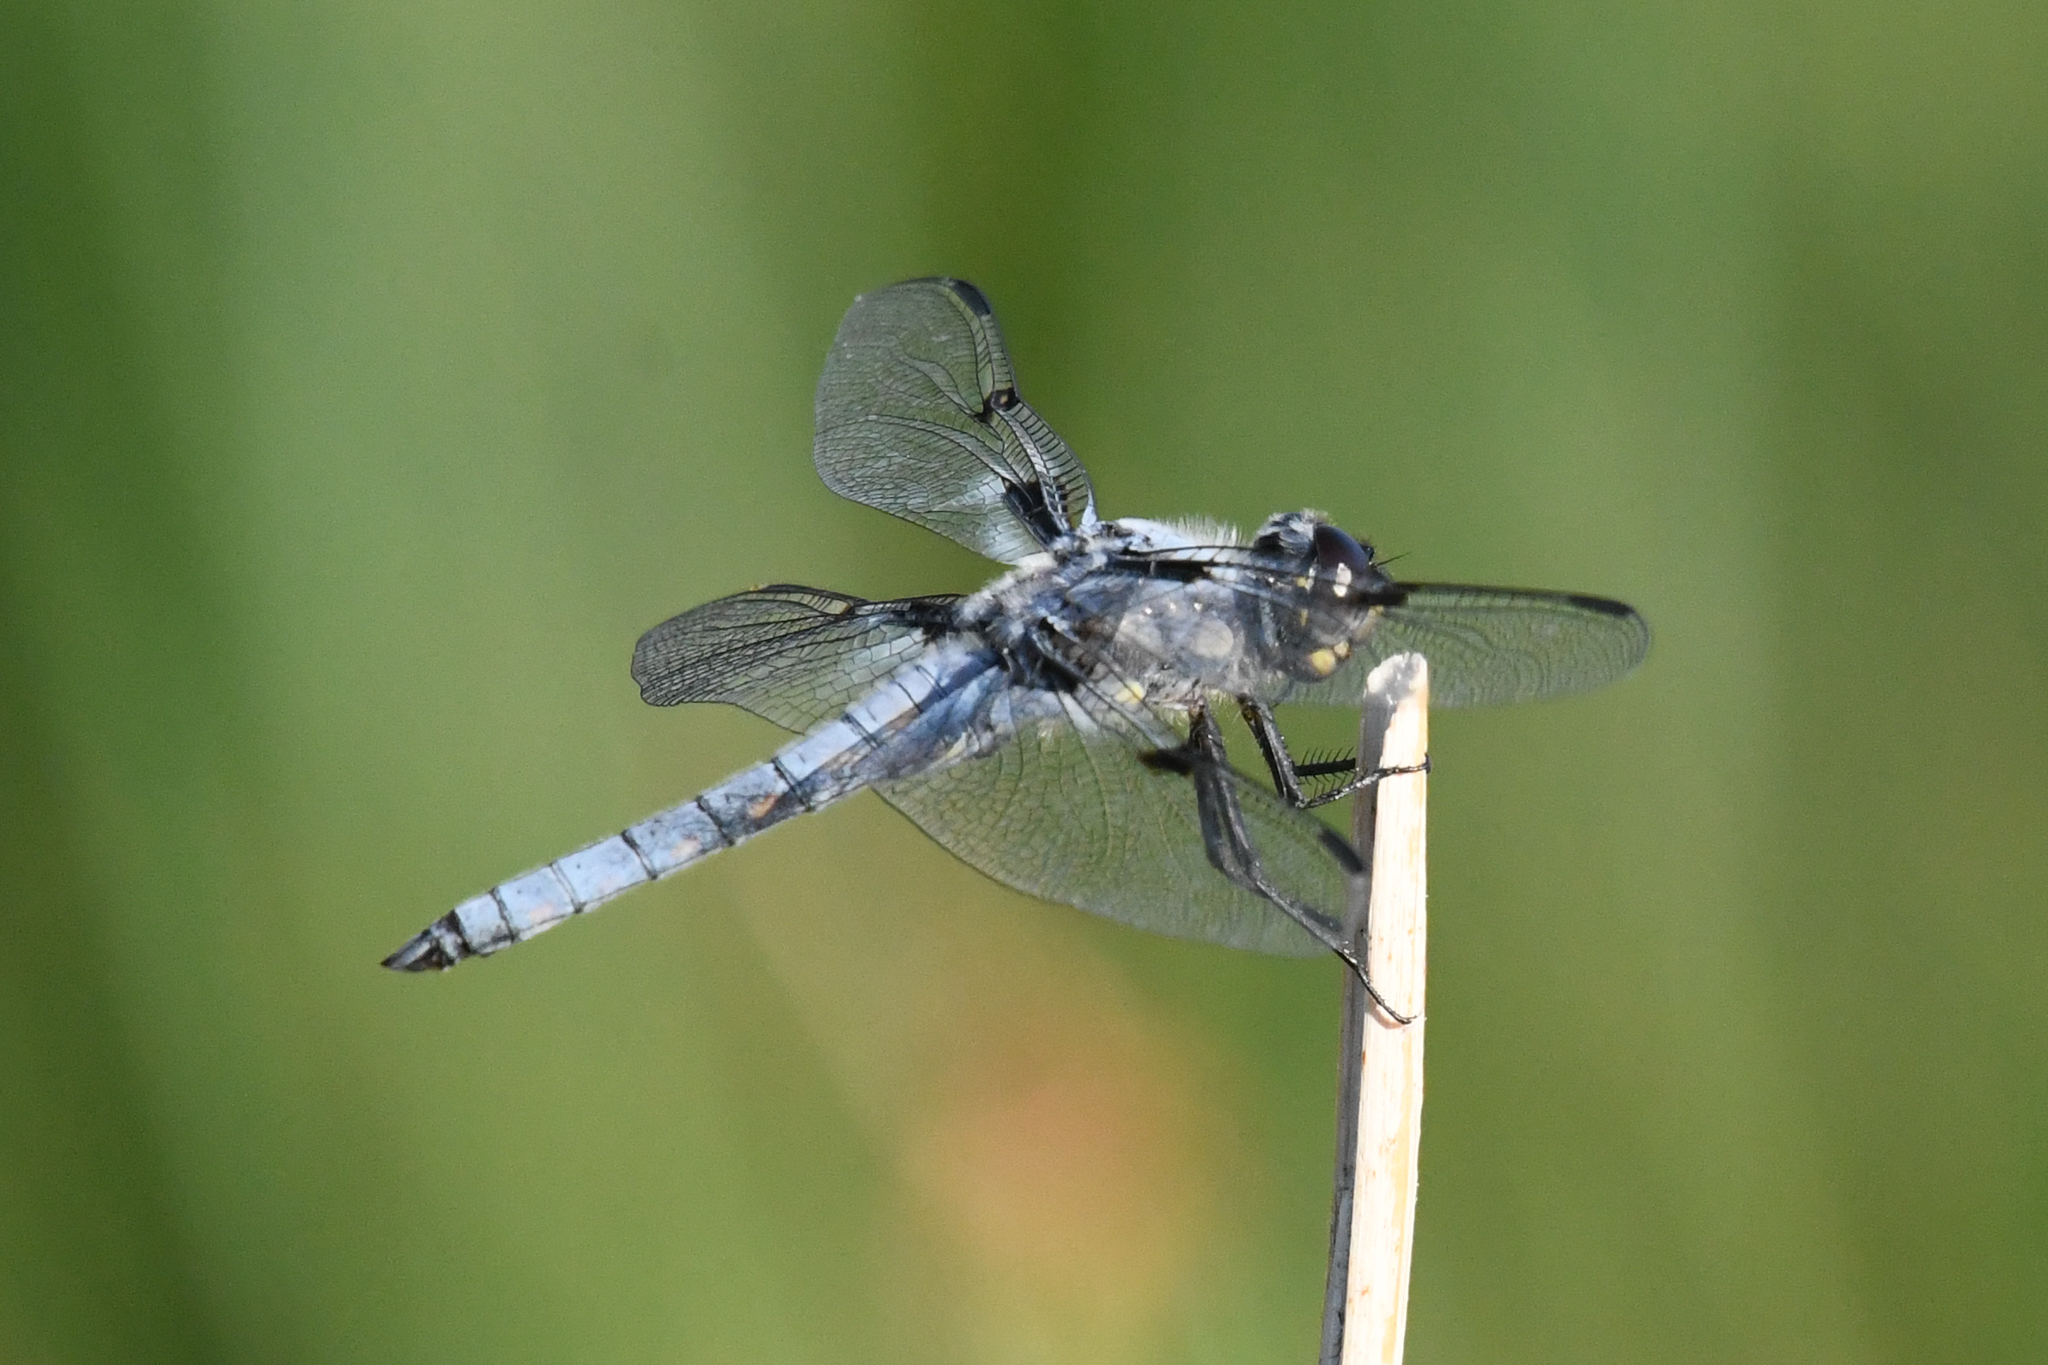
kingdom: Animalia
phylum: Arthropoda
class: Insecta
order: Odonata
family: Libellulidae
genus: Libellula
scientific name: Libellula nodisticta
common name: Hoary skimmer
